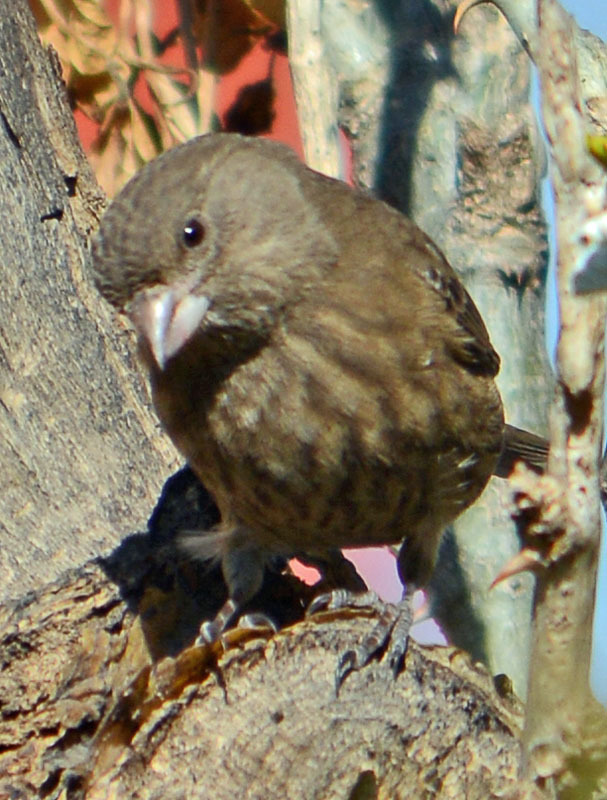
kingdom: Animalia
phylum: Chordata
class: Aves
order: Passeriformes
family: Fringillidae
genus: Haemorhous
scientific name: Haemorhous mexicanus
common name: House finch
